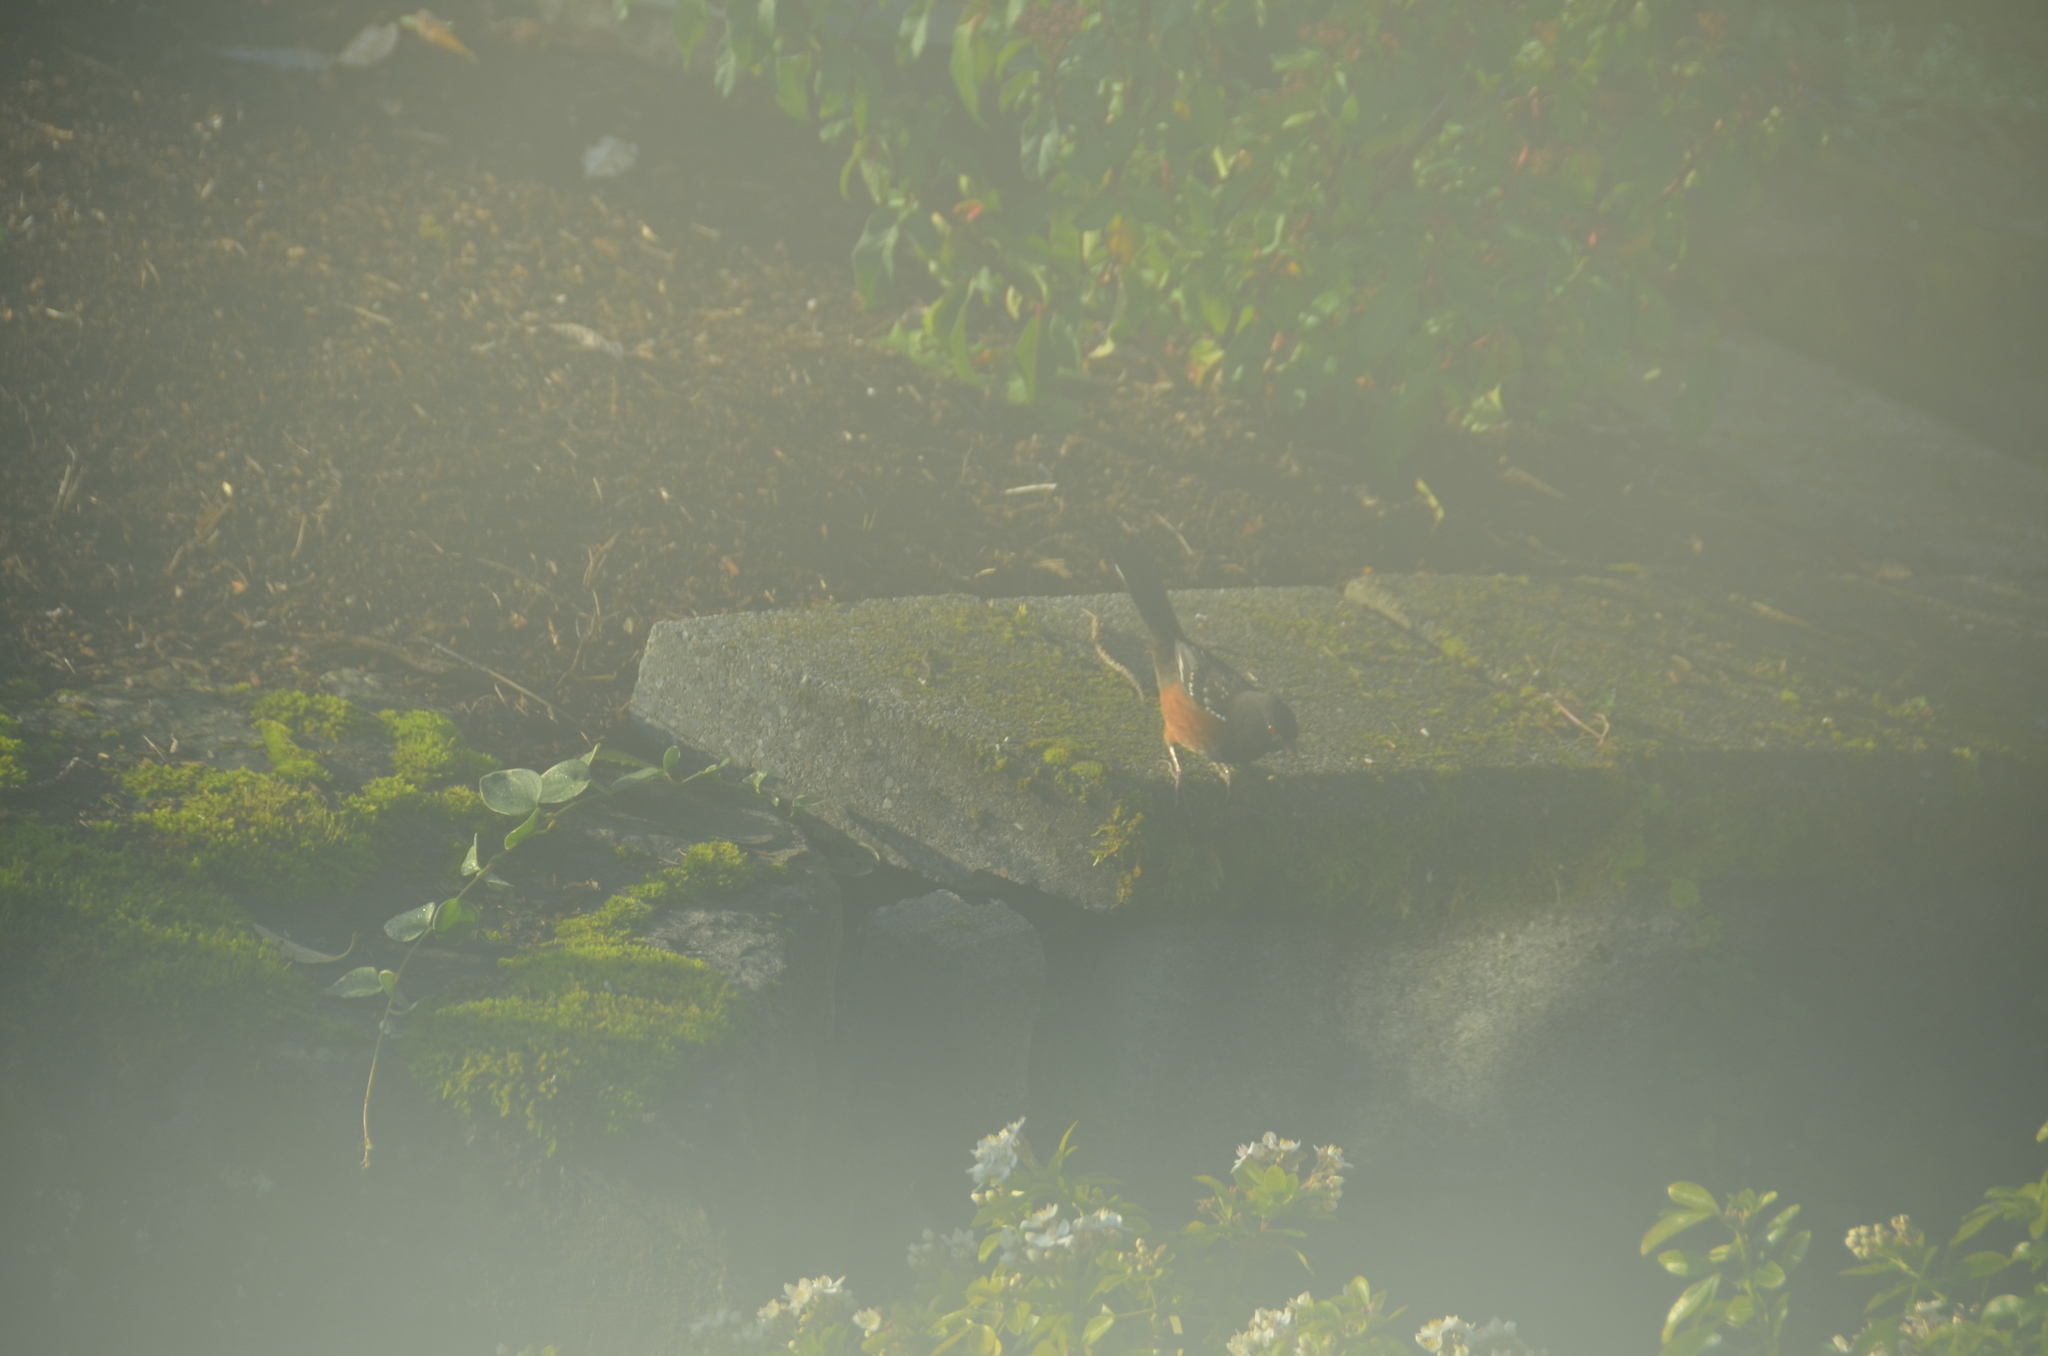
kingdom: Animalia
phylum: Chordata
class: Aves
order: Passeriformes
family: Passerellidae
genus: Pipilo
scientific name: Pipilo maculatus
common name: Spotted towhee
